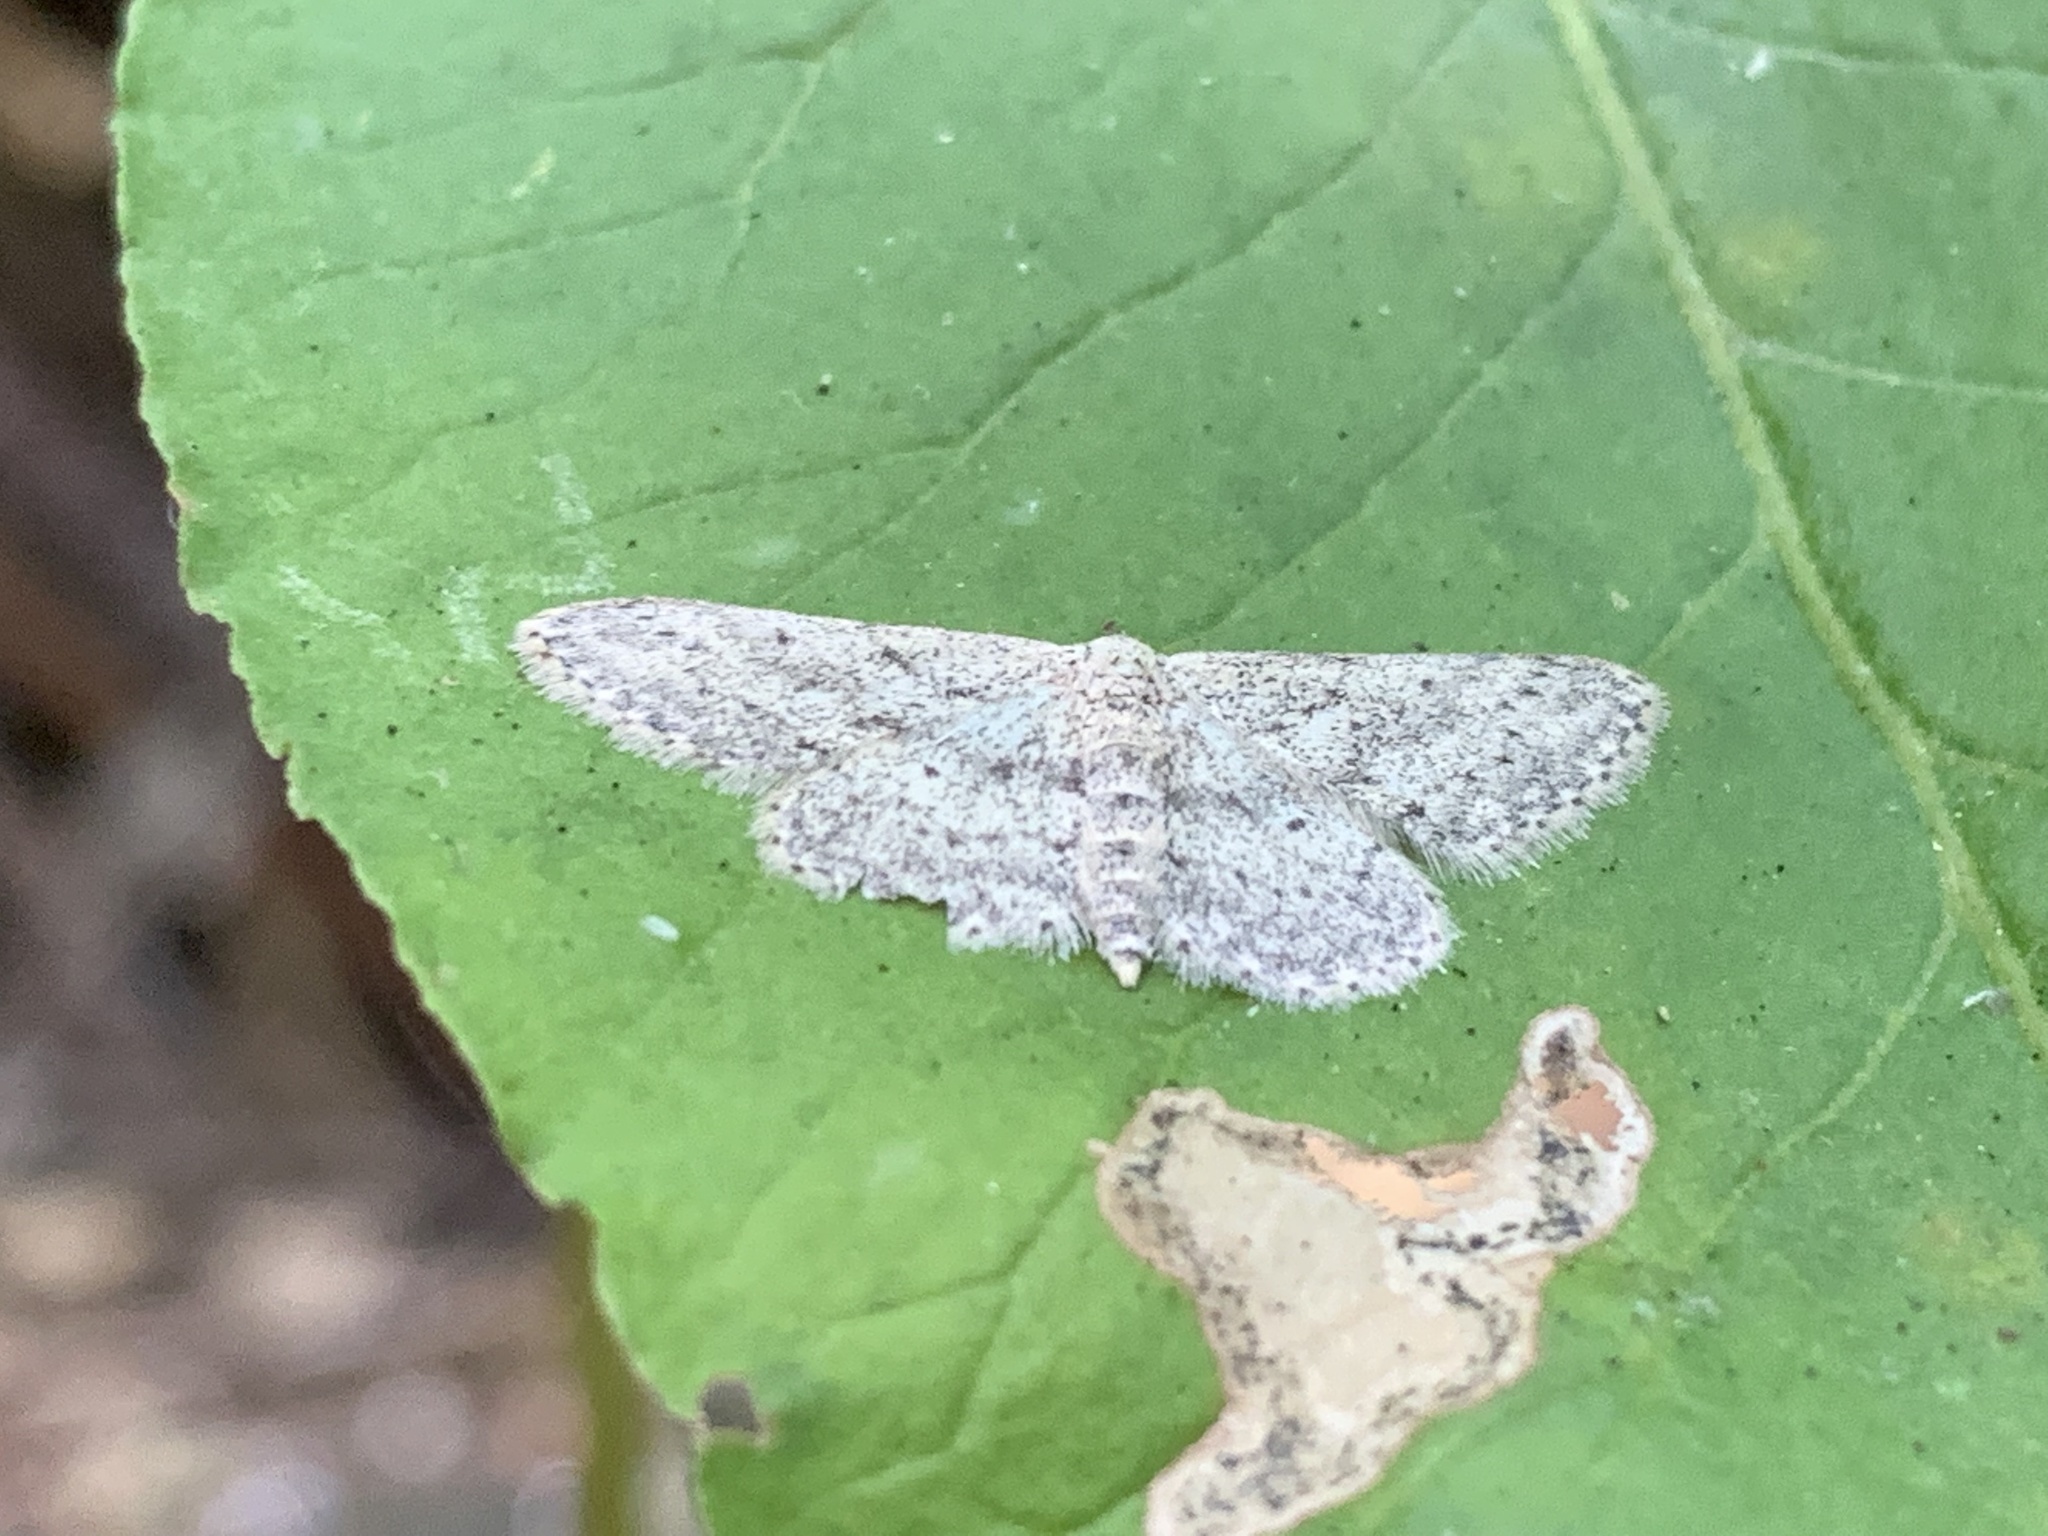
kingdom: Animalia
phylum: Arthropoda
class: Insecta
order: Lepidoptera
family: Geometridae
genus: Idaea
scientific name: Idaea seriata
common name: Small dusty wave
